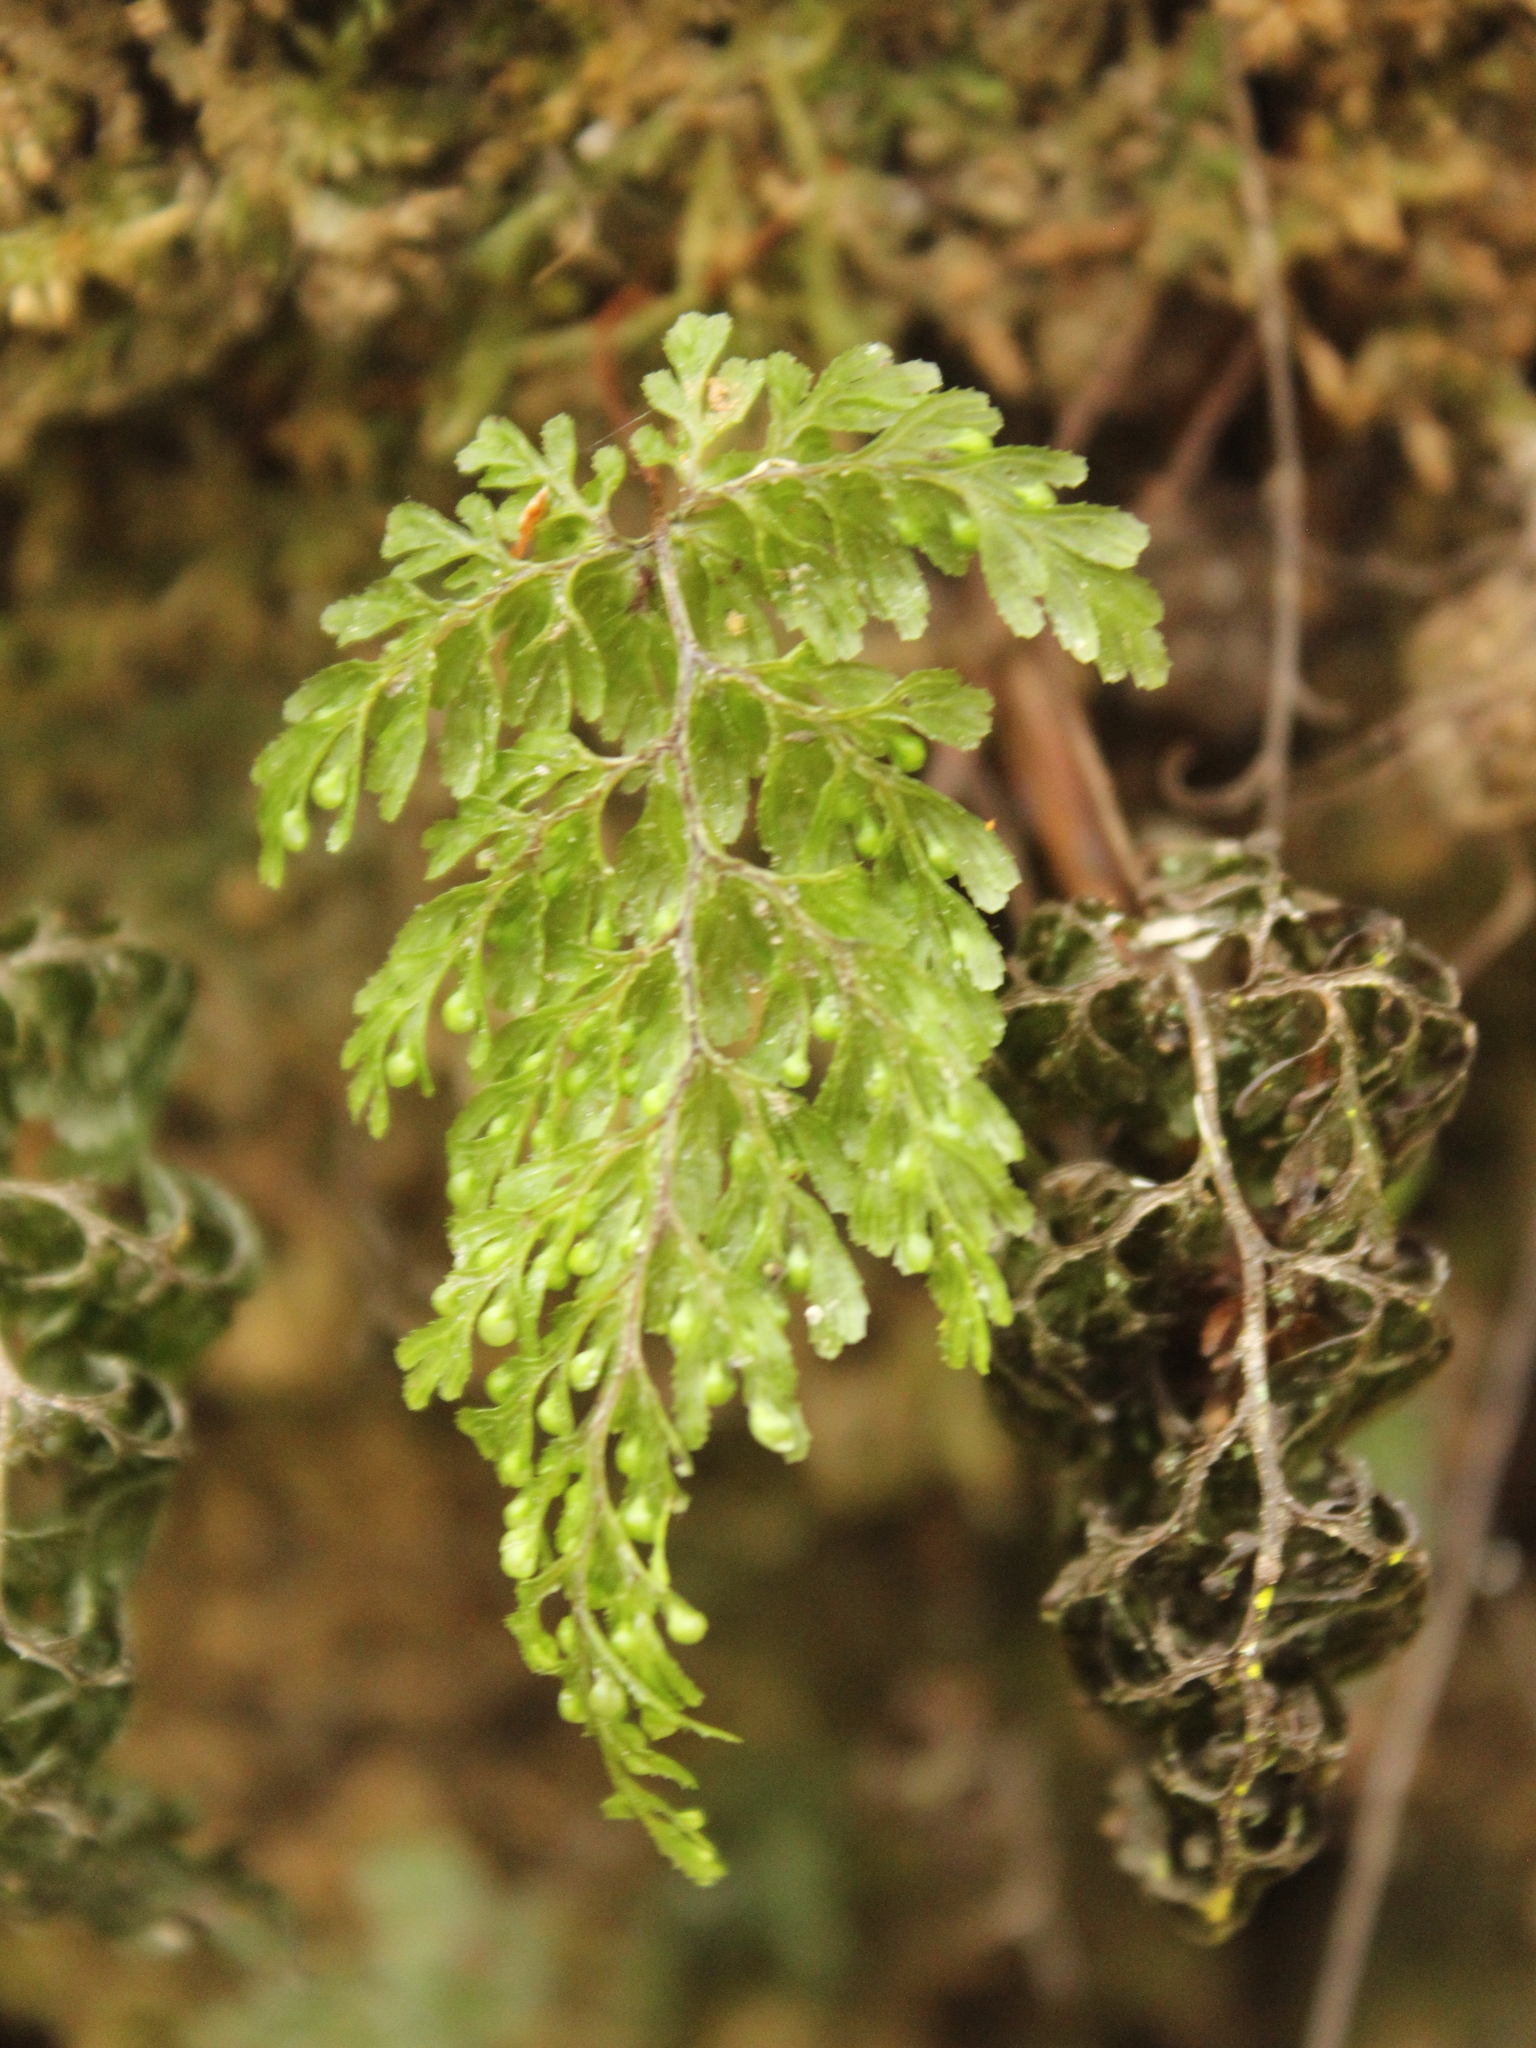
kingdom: Plantae
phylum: Tracheophyta
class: Polypodiopsida
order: Hymenophyllales
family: Hymenophyllaceae
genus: Hymenophyllum
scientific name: Hymenophyllum bivalve
